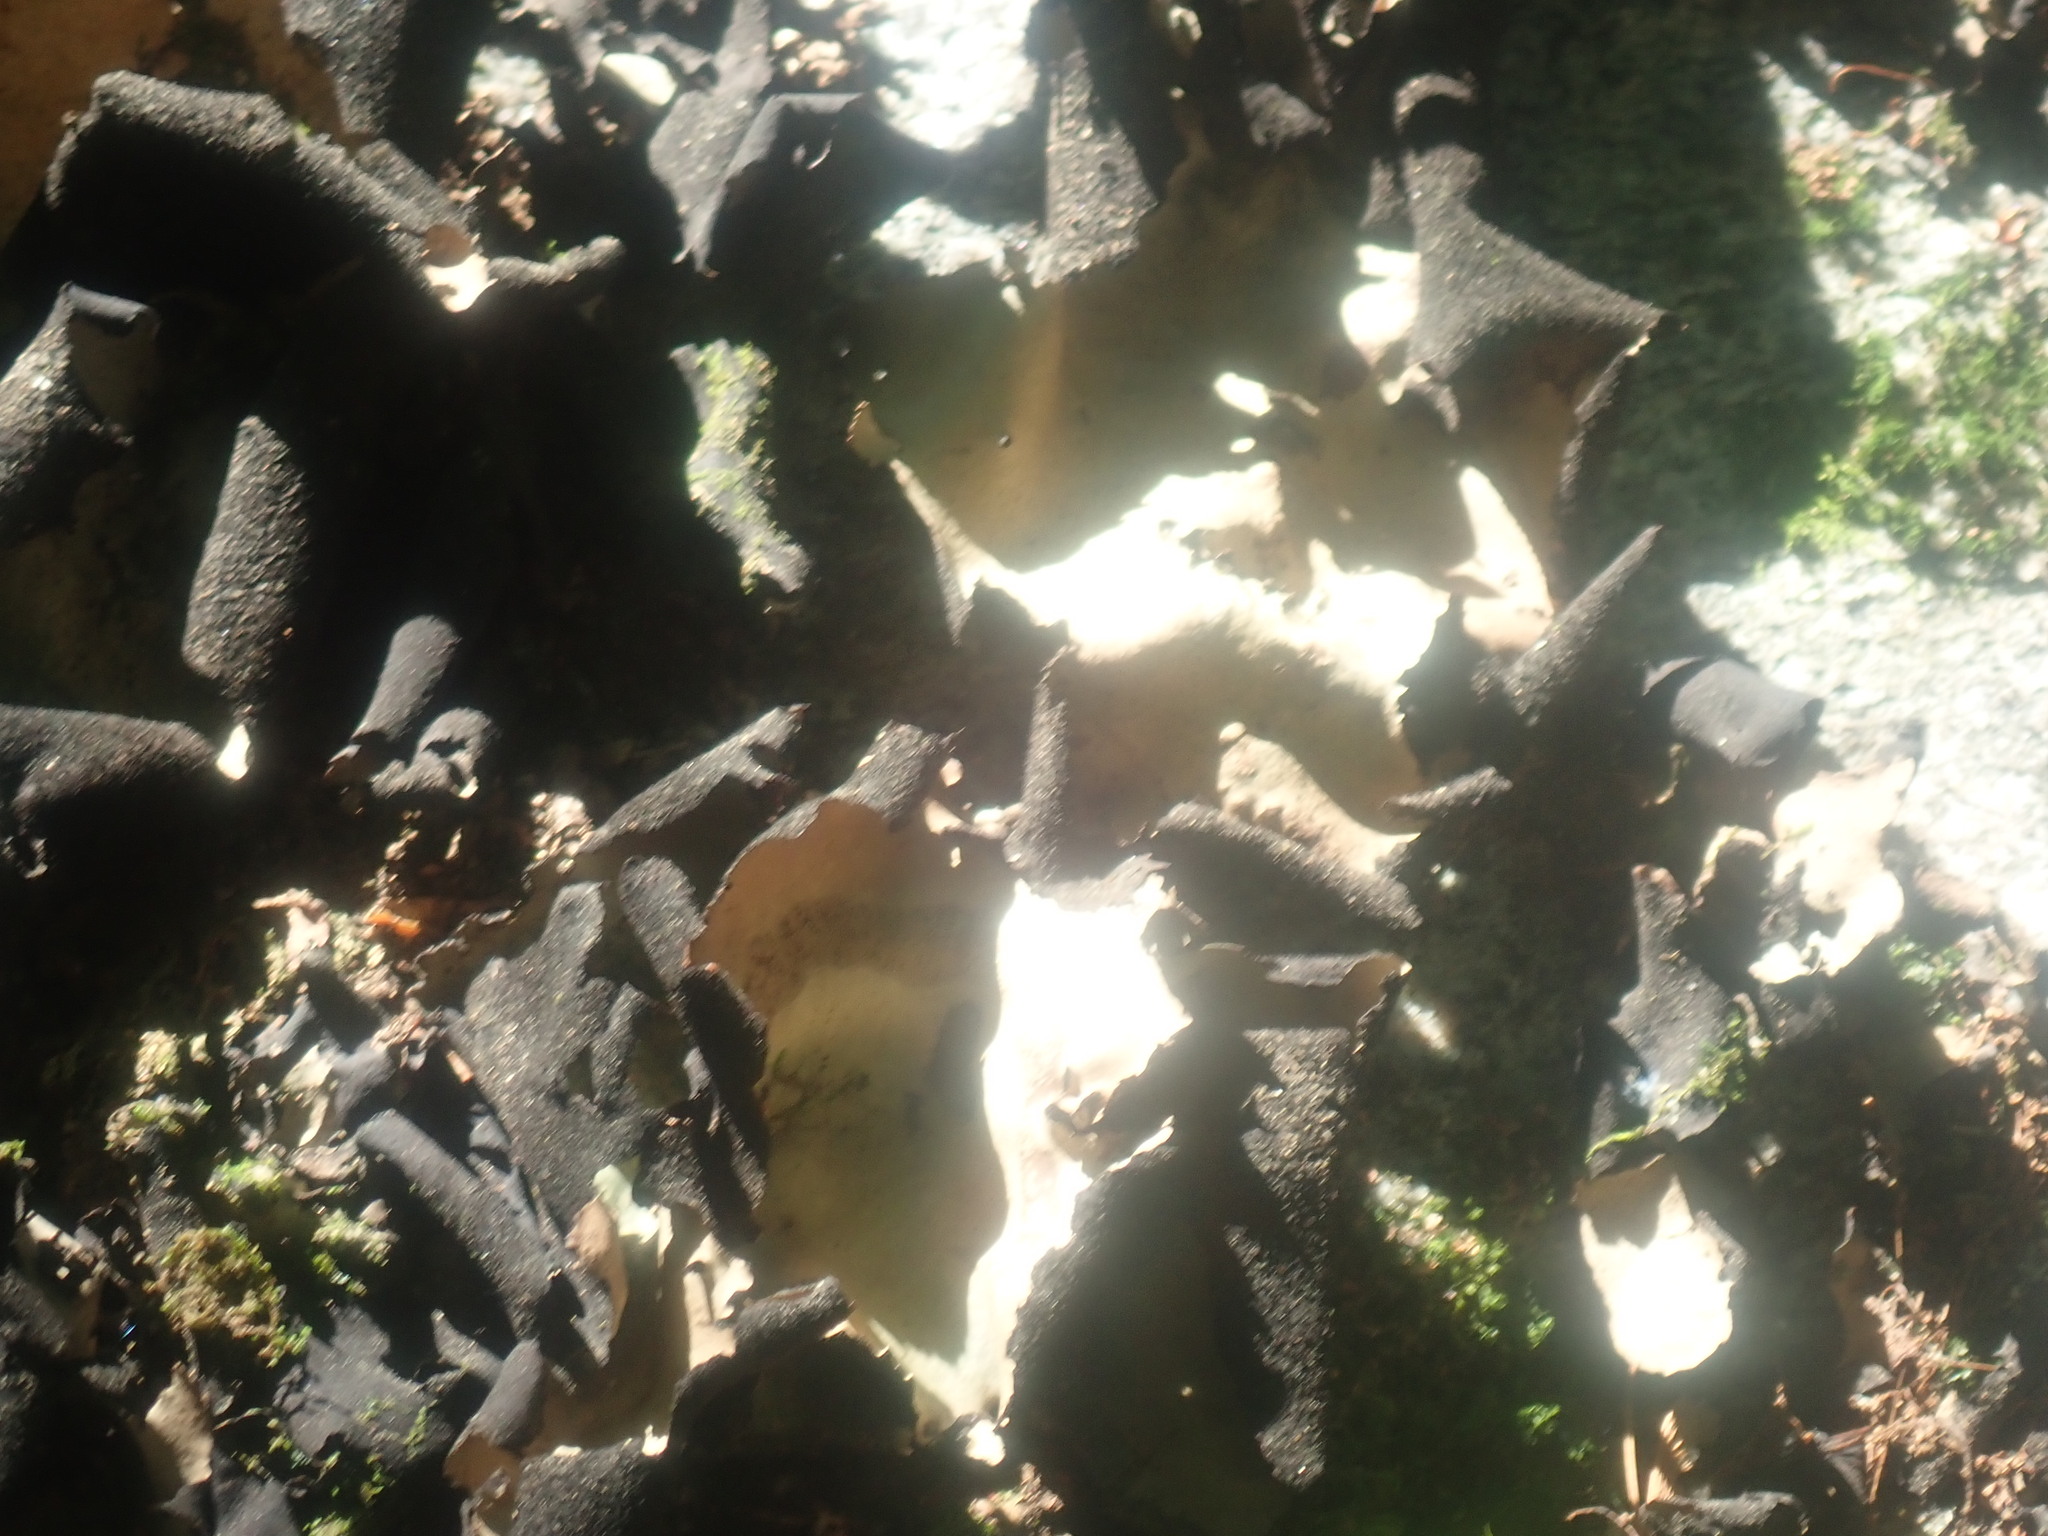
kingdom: Fungi
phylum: Ascomycota
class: Lecanoromycetes
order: Umbilicariales
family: Umbilicariaceae
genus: Umbilicaria
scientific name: Umbilicaria mammulata
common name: Smooth rock tripe
